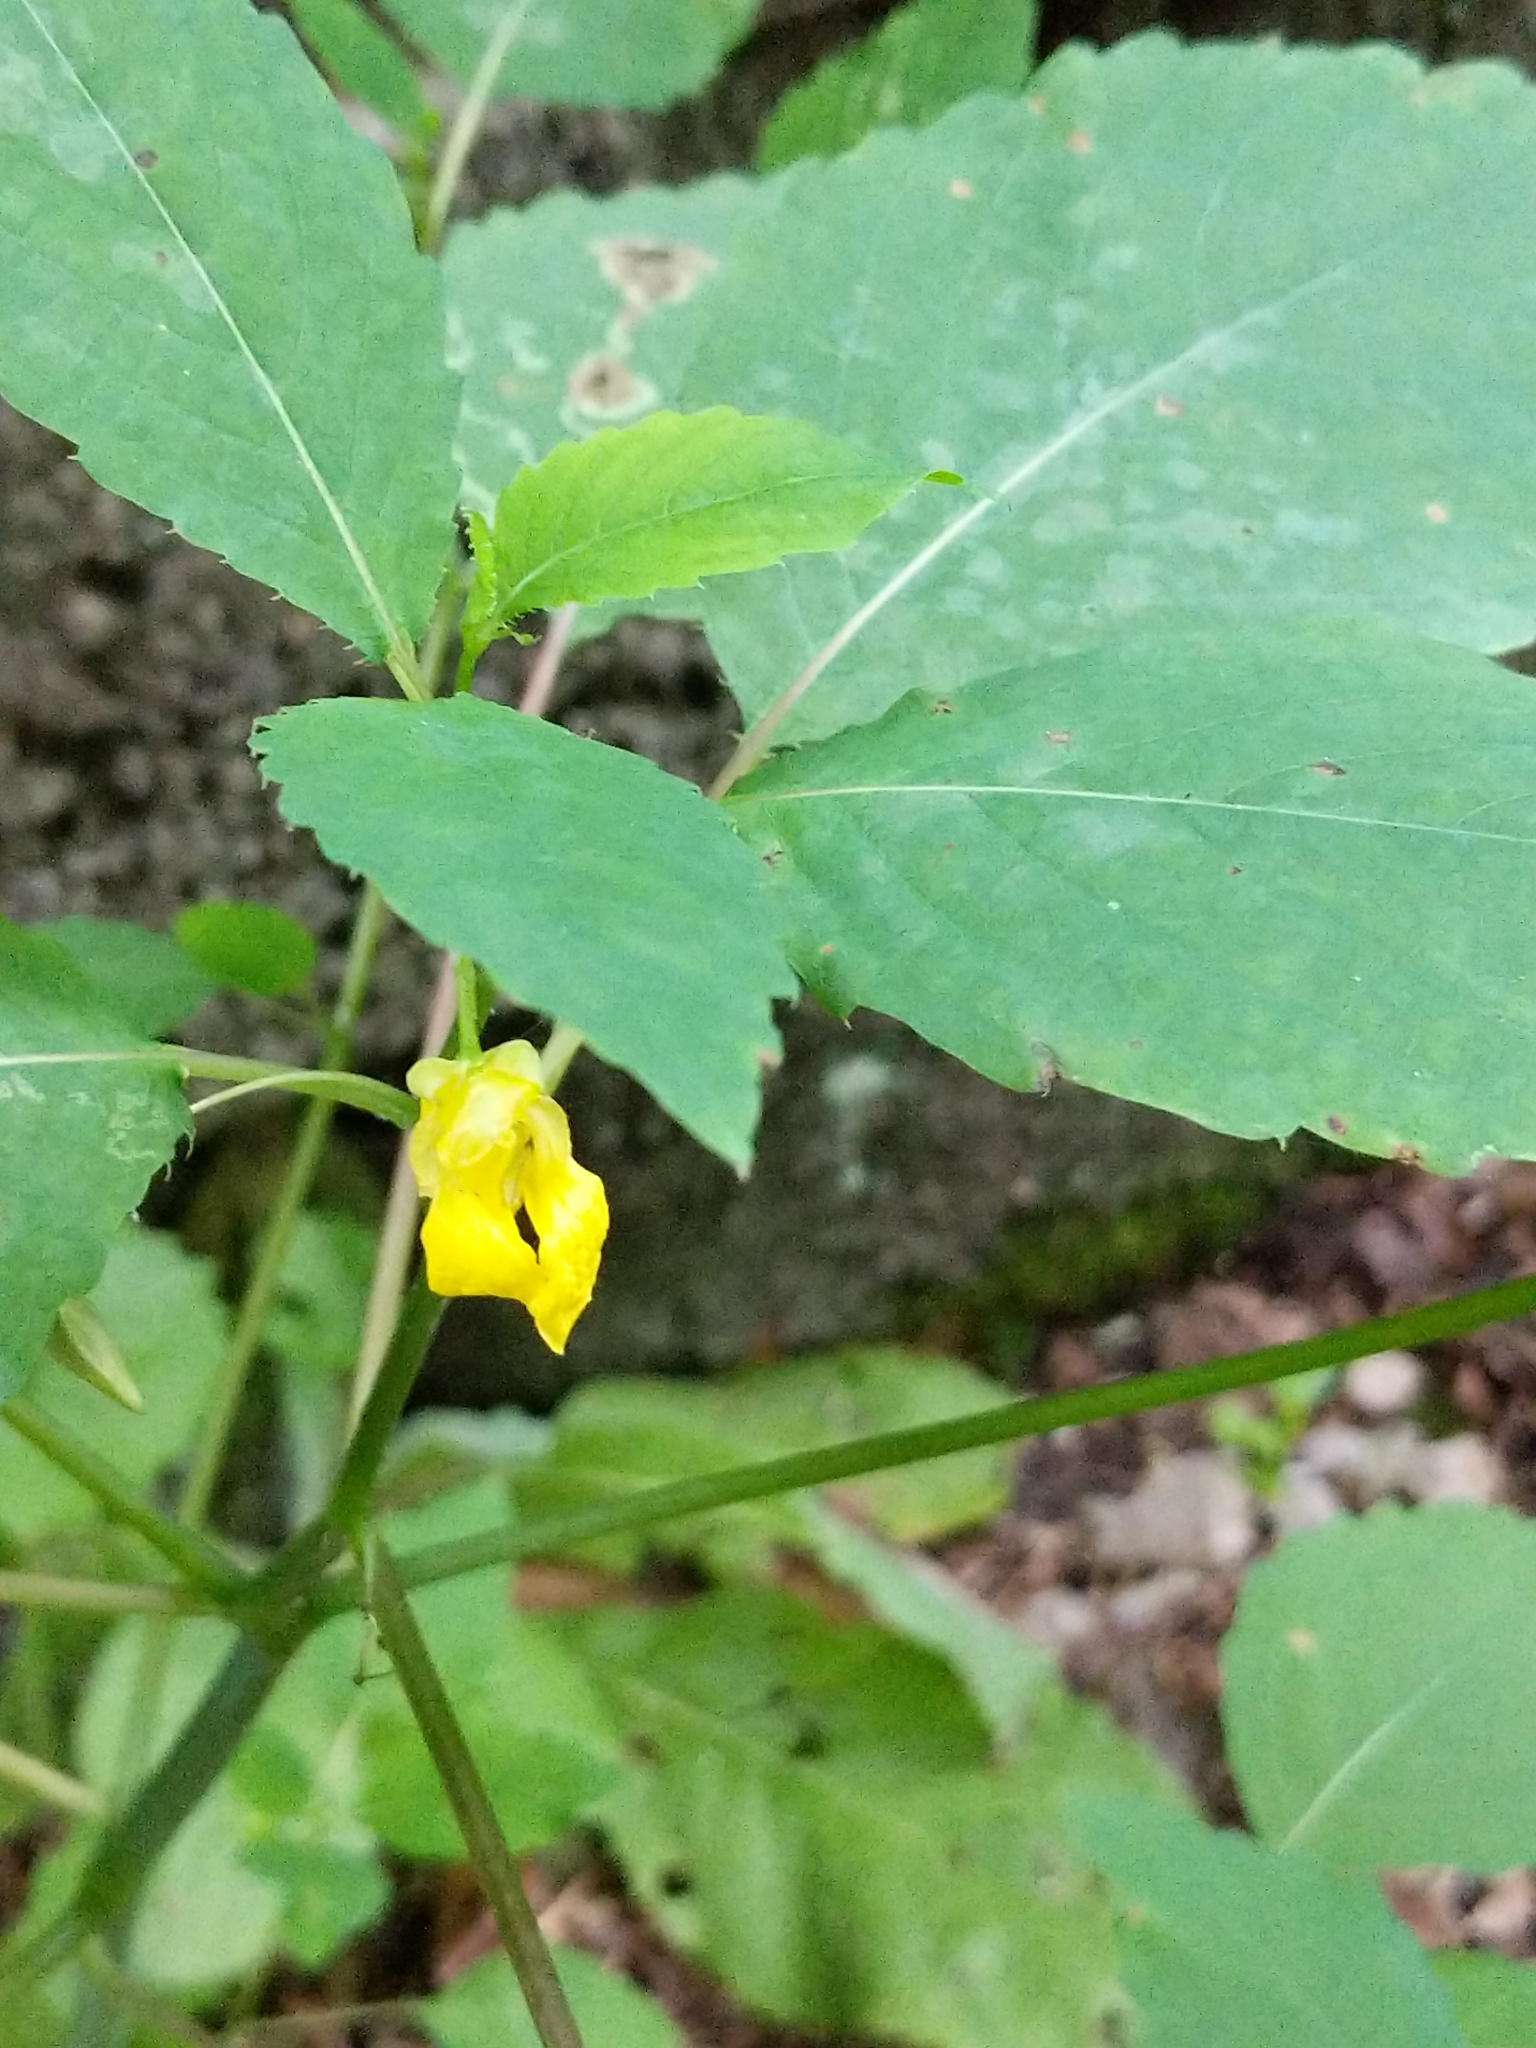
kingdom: Plantae
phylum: Tracheophyta
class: Magnoliopsida
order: Ericales
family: Balsaminaceae
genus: Impatiens
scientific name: Impatiens pallida
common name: Pale snapweed
